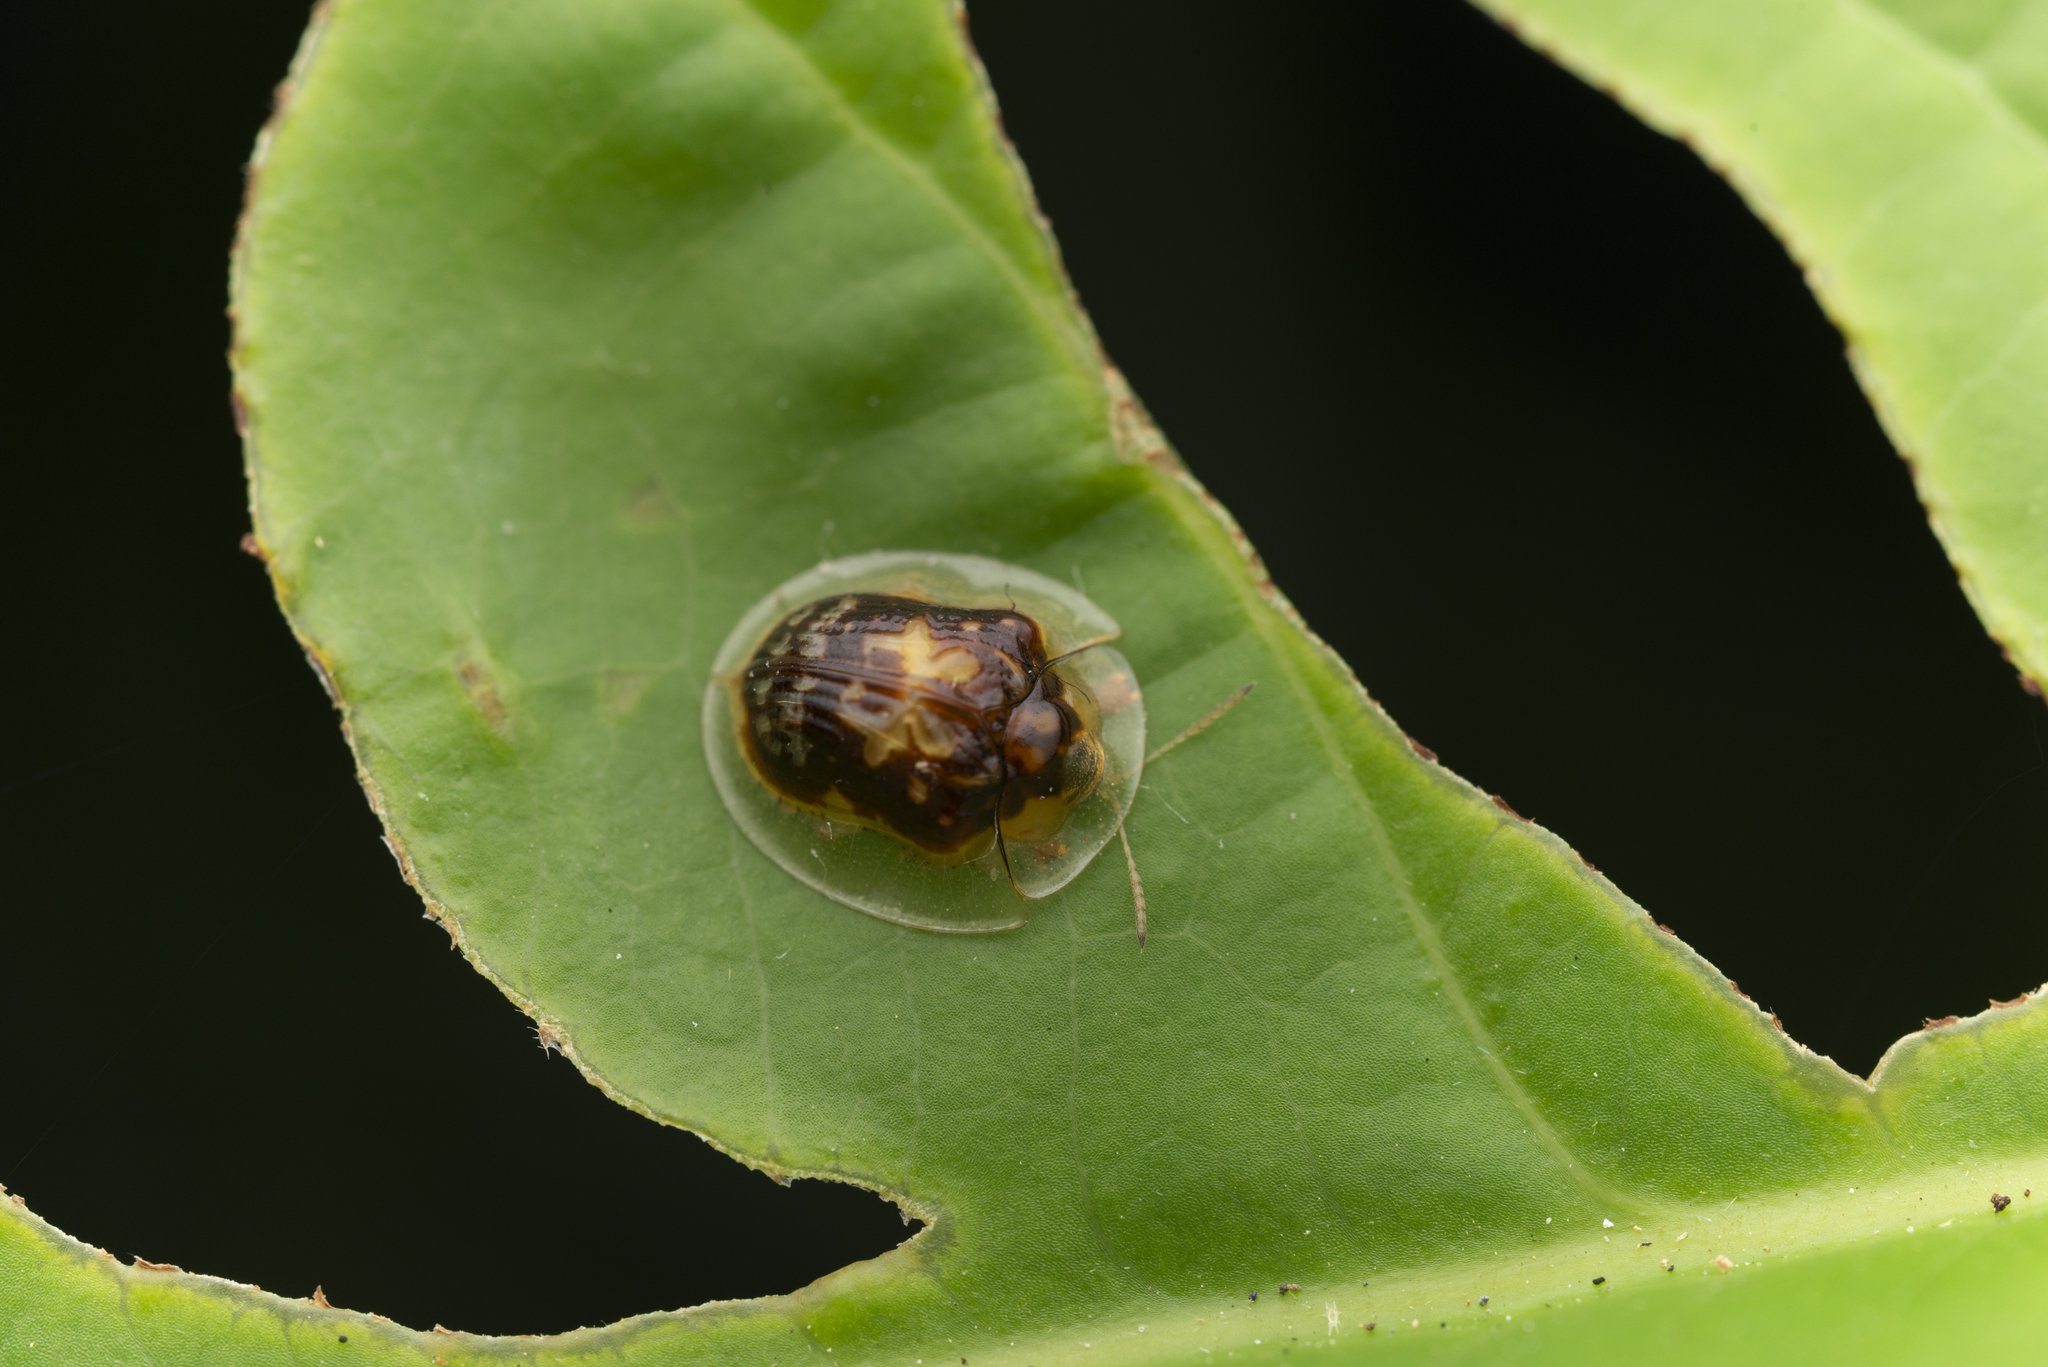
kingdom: Animalia
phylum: Arthropoda
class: Insecta
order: Coleoptera
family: Chrysomelidae
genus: Cassida
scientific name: Cassida crucifera
